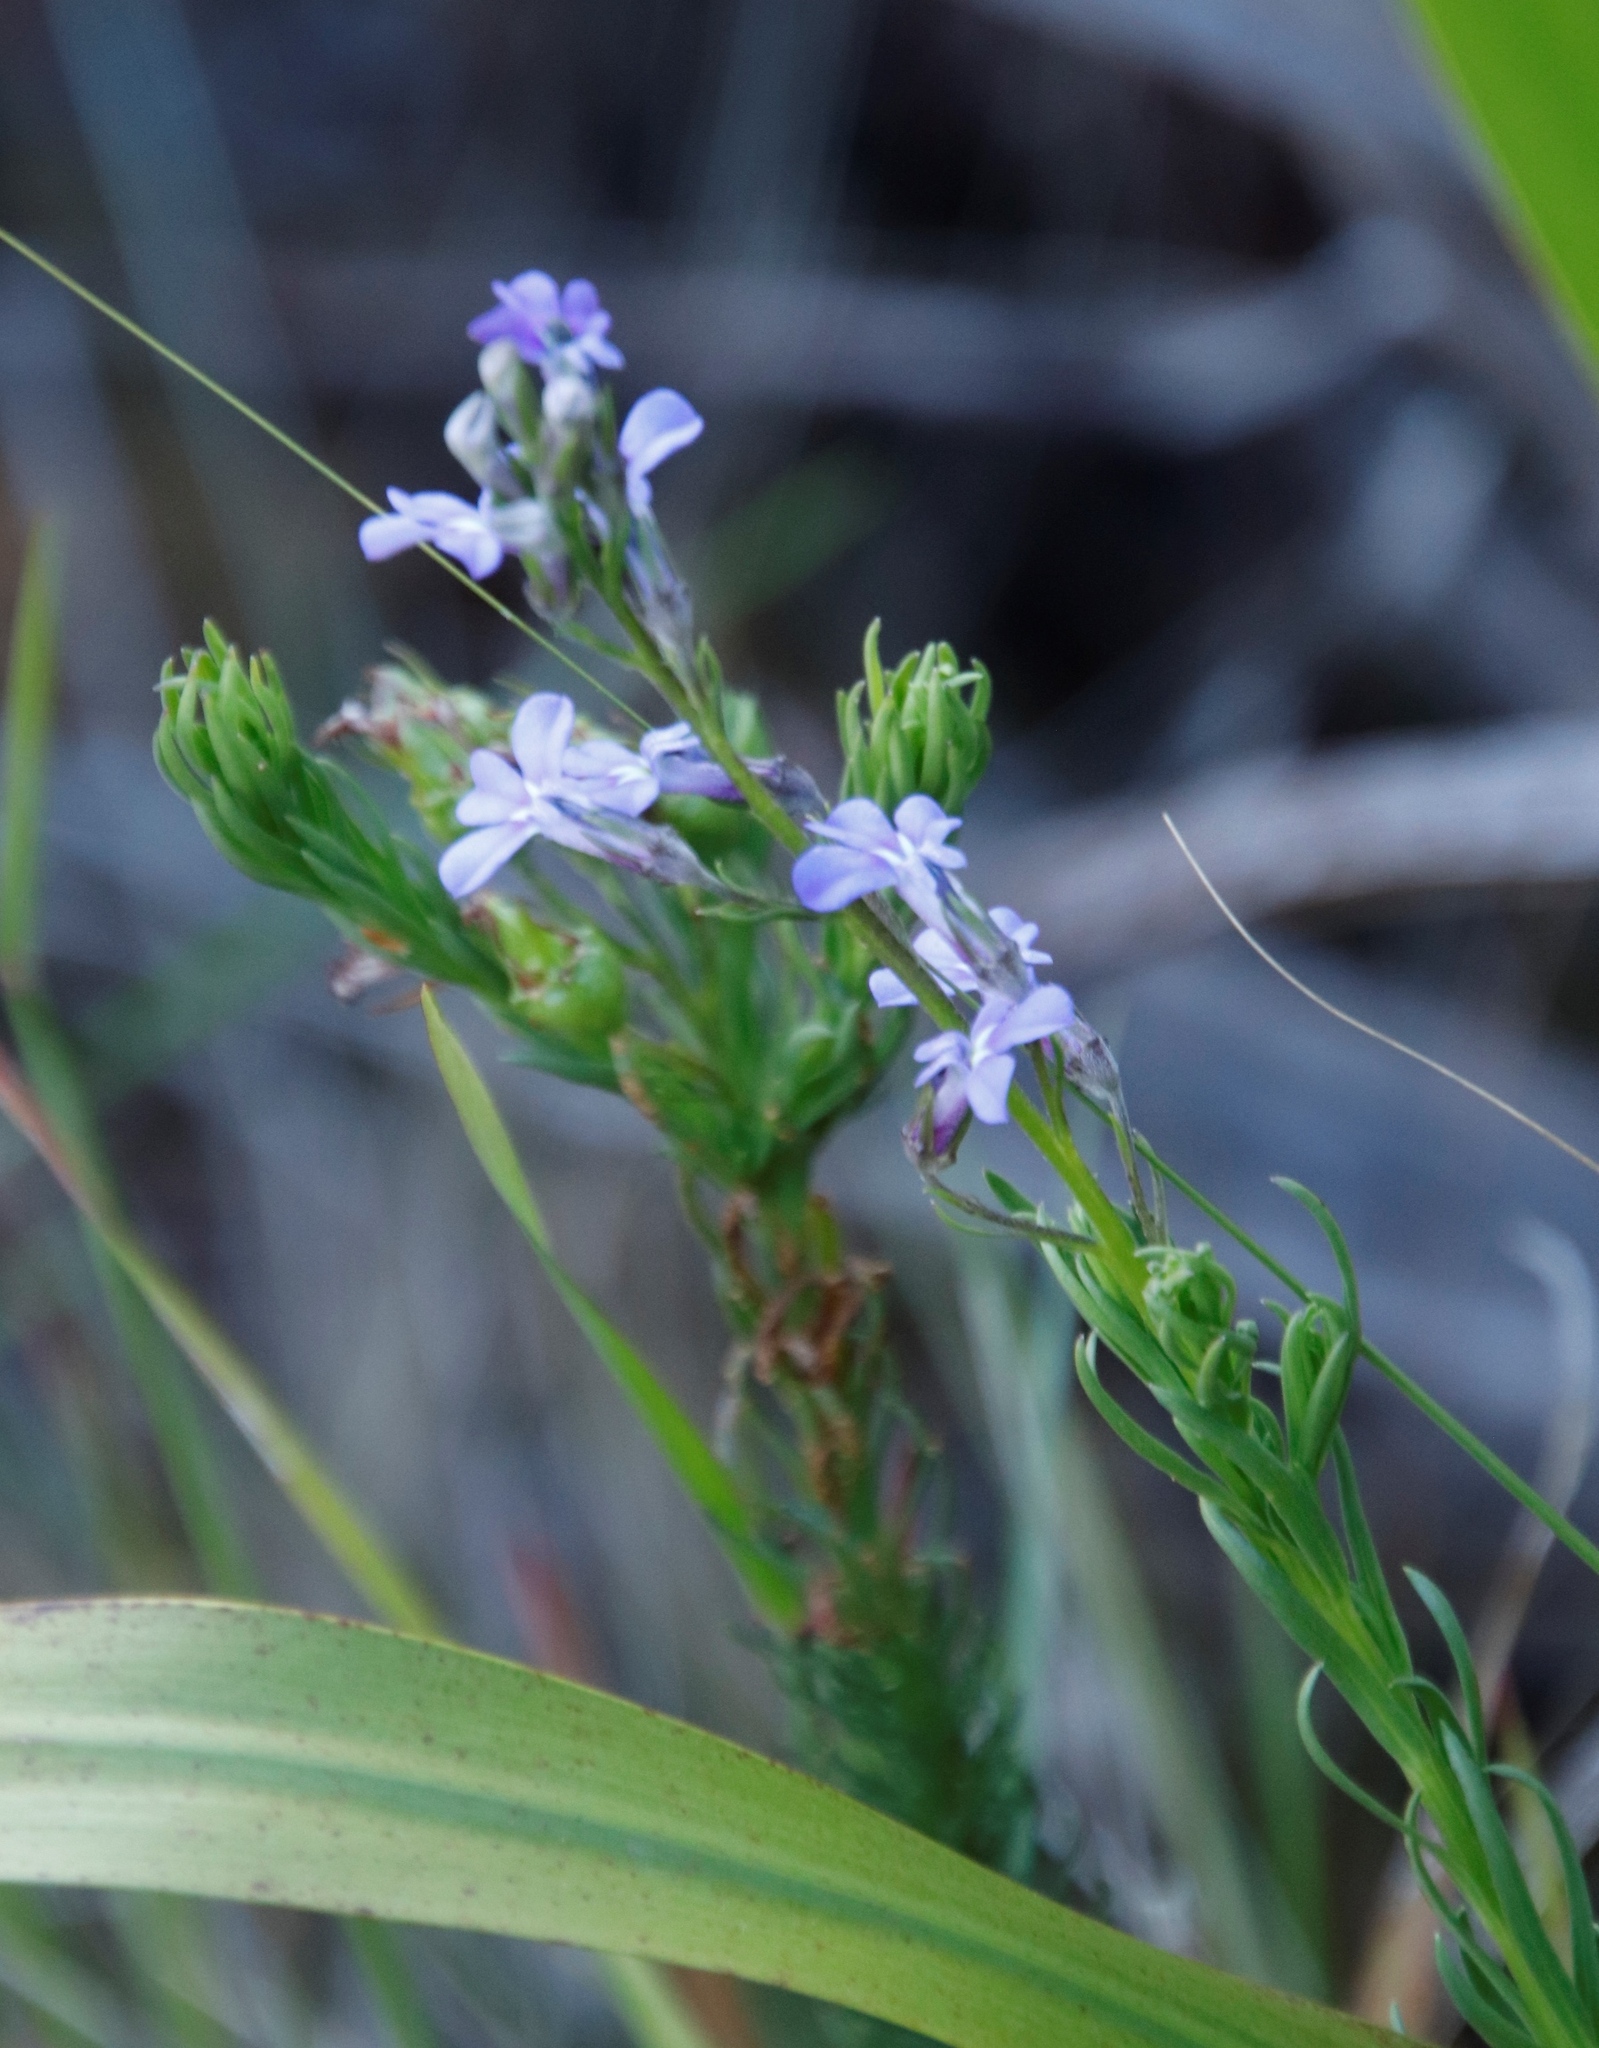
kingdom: Plantae
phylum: Tracheophyta
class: Magnoliopsida
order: Asterales
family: Campanulaceae
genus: Lobelia
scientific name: Lobelia pinifolia
